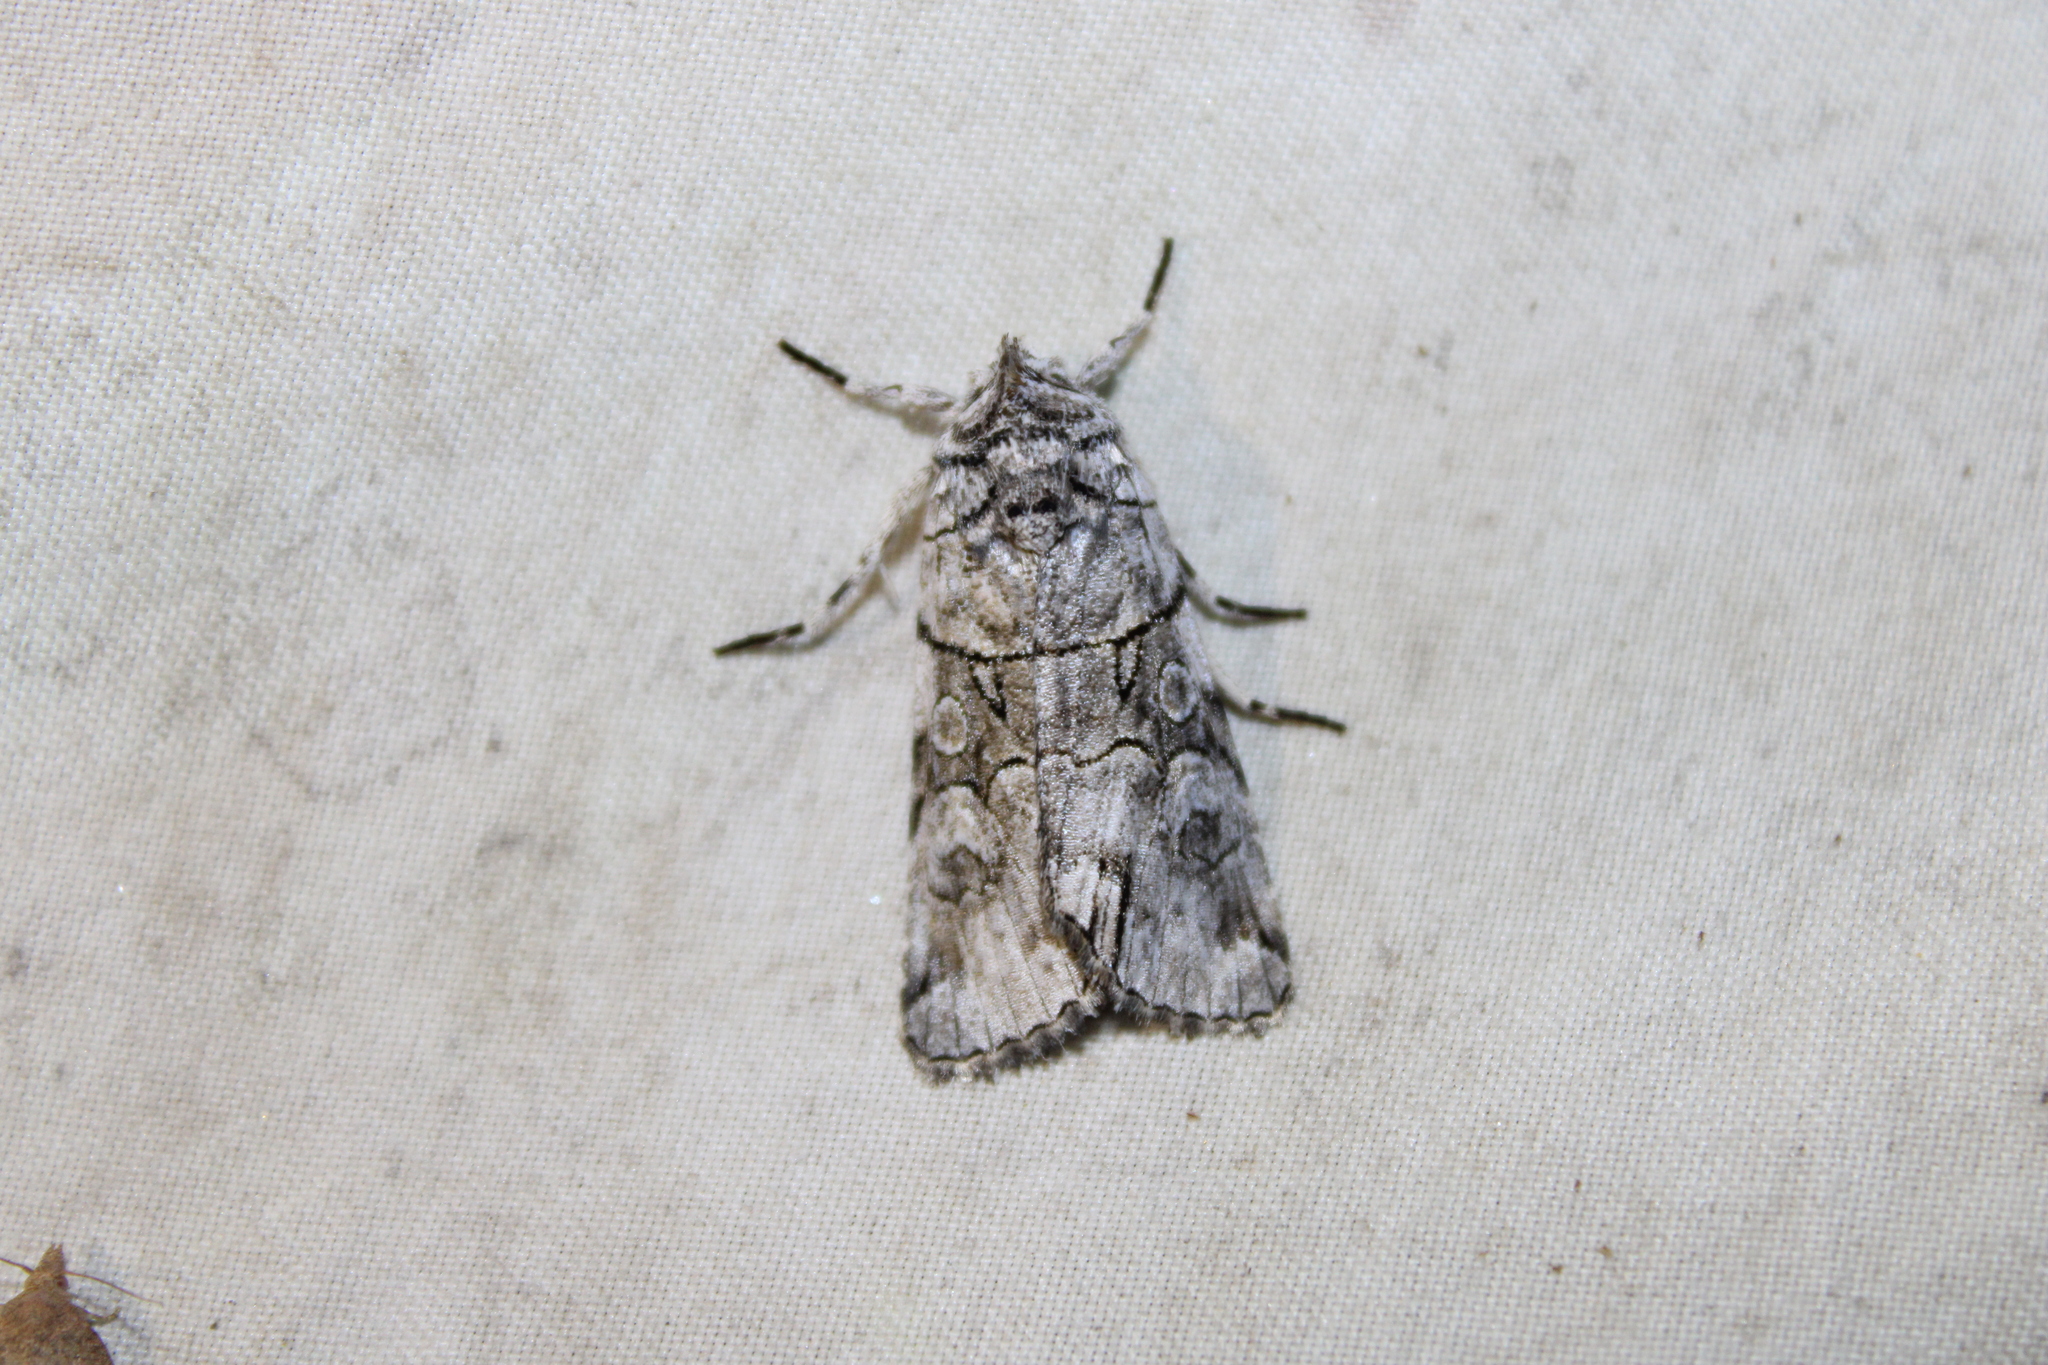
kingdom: Animalia
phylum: Arthropoda
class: Insecta
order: Lepidoptera
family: Noctuidae
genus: Sympistis
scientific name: Sympistis chionanthi
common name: Fringe-tree sallow
